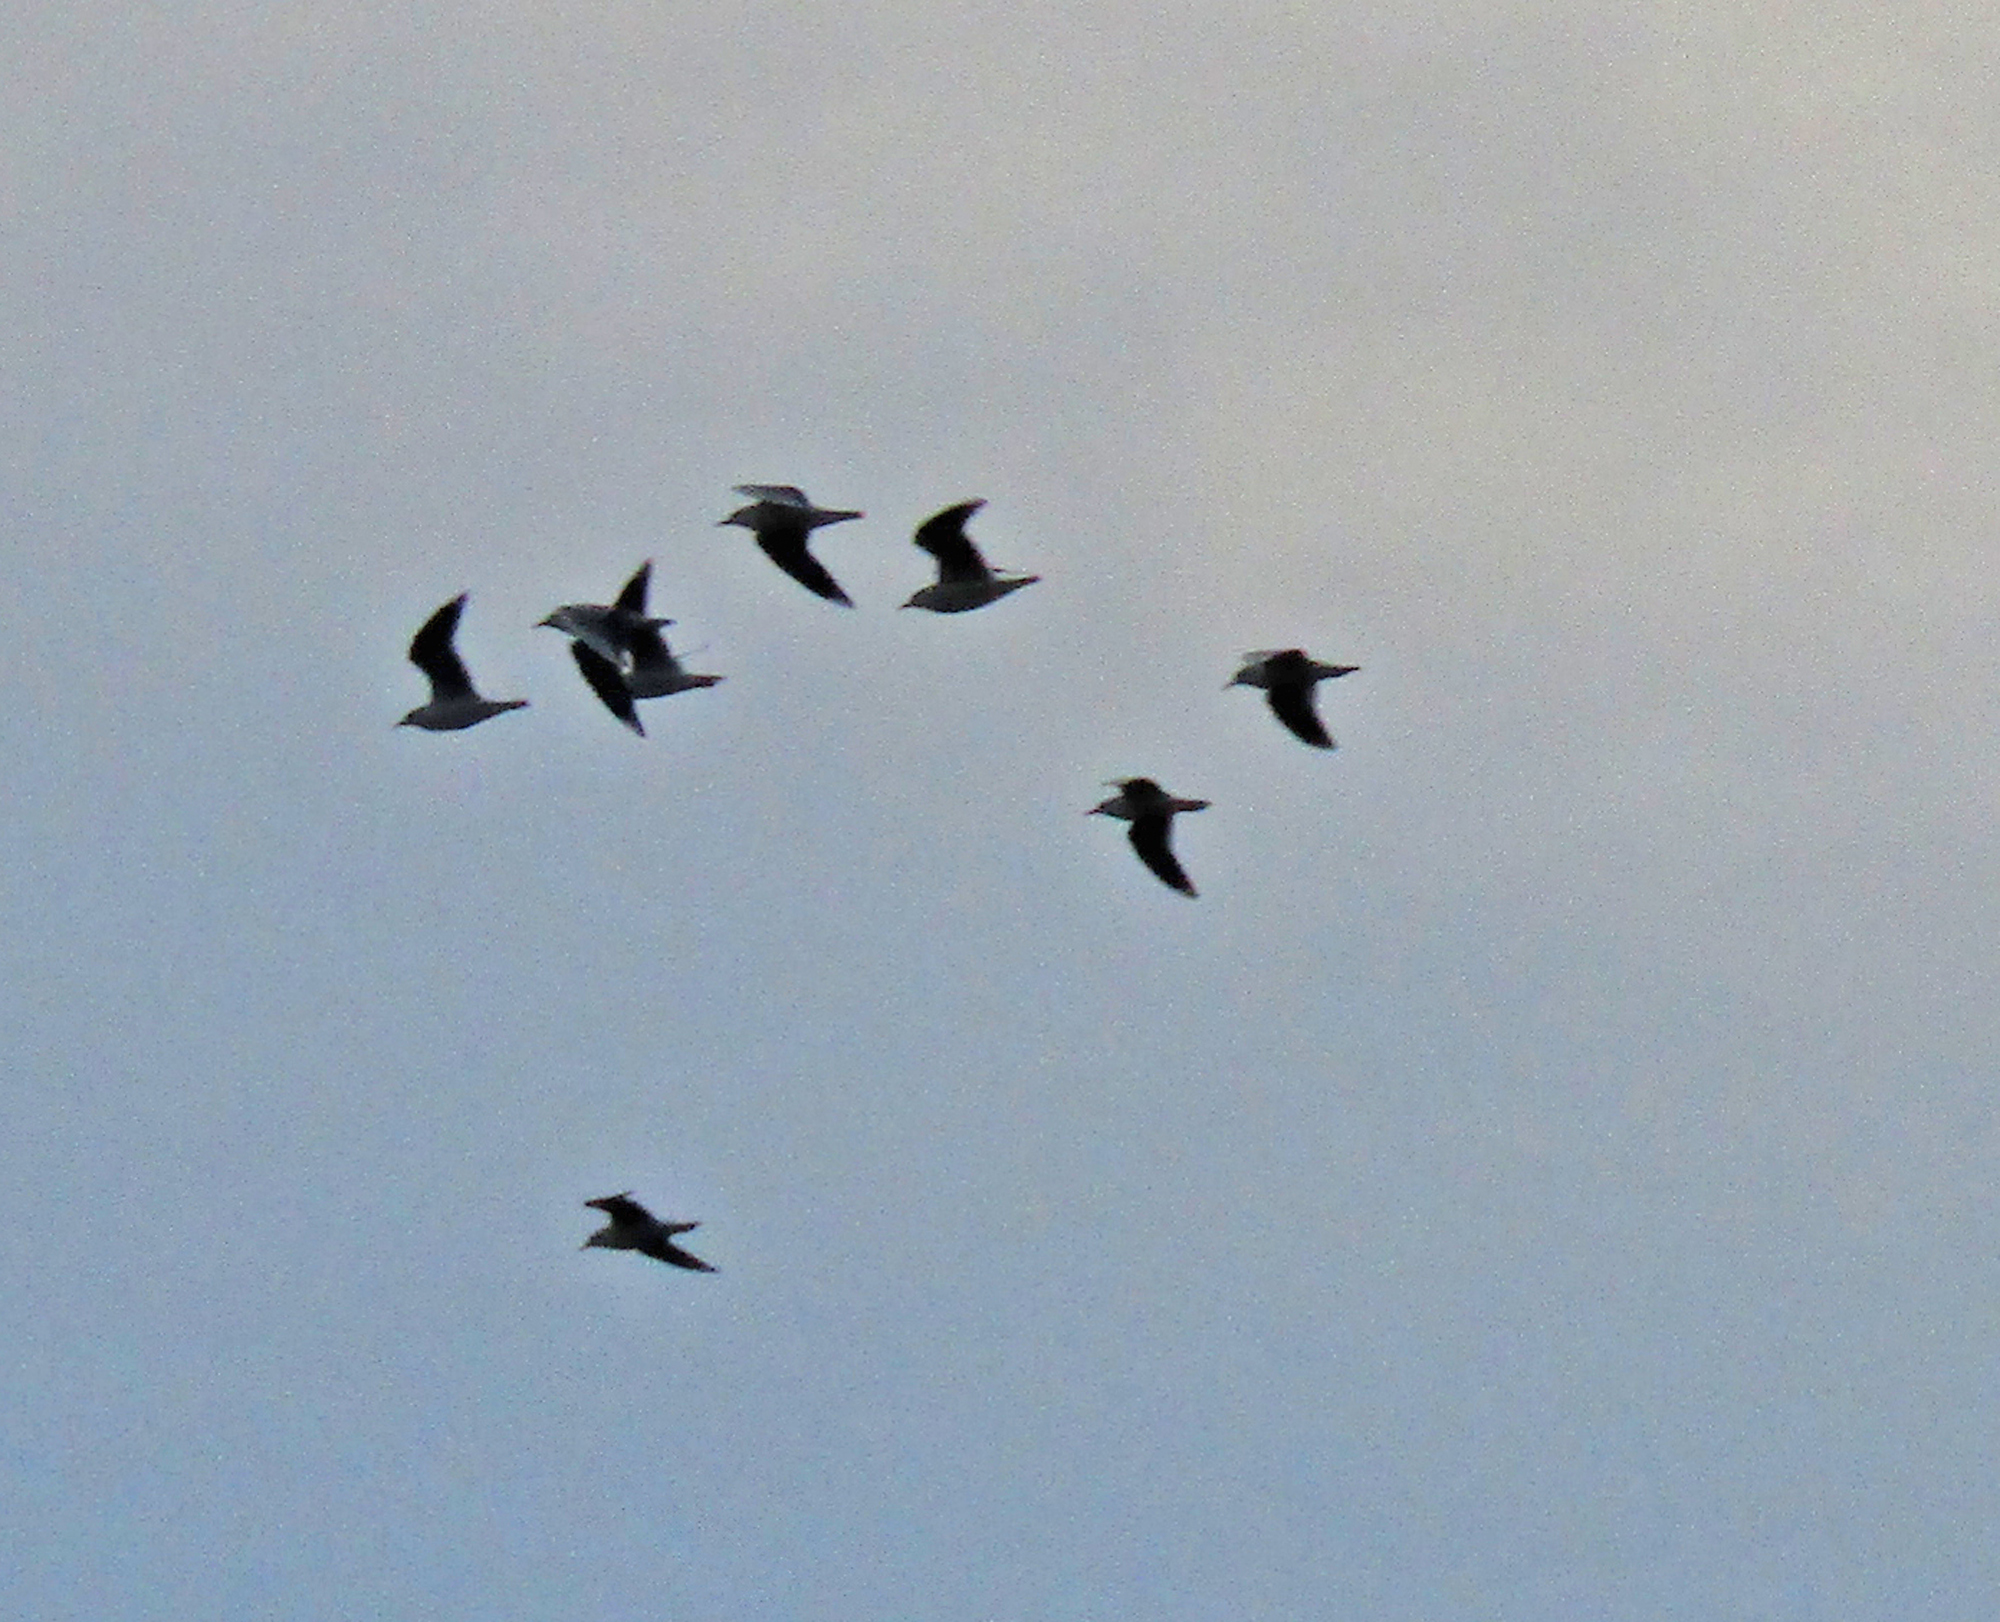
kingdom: Animalia
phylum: Chordata
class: Aves
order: Charadriiformes
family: Laridae
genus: Chroicocephalus
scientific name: Chroicocephalus maculipennis
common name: Brown-hooded gull
